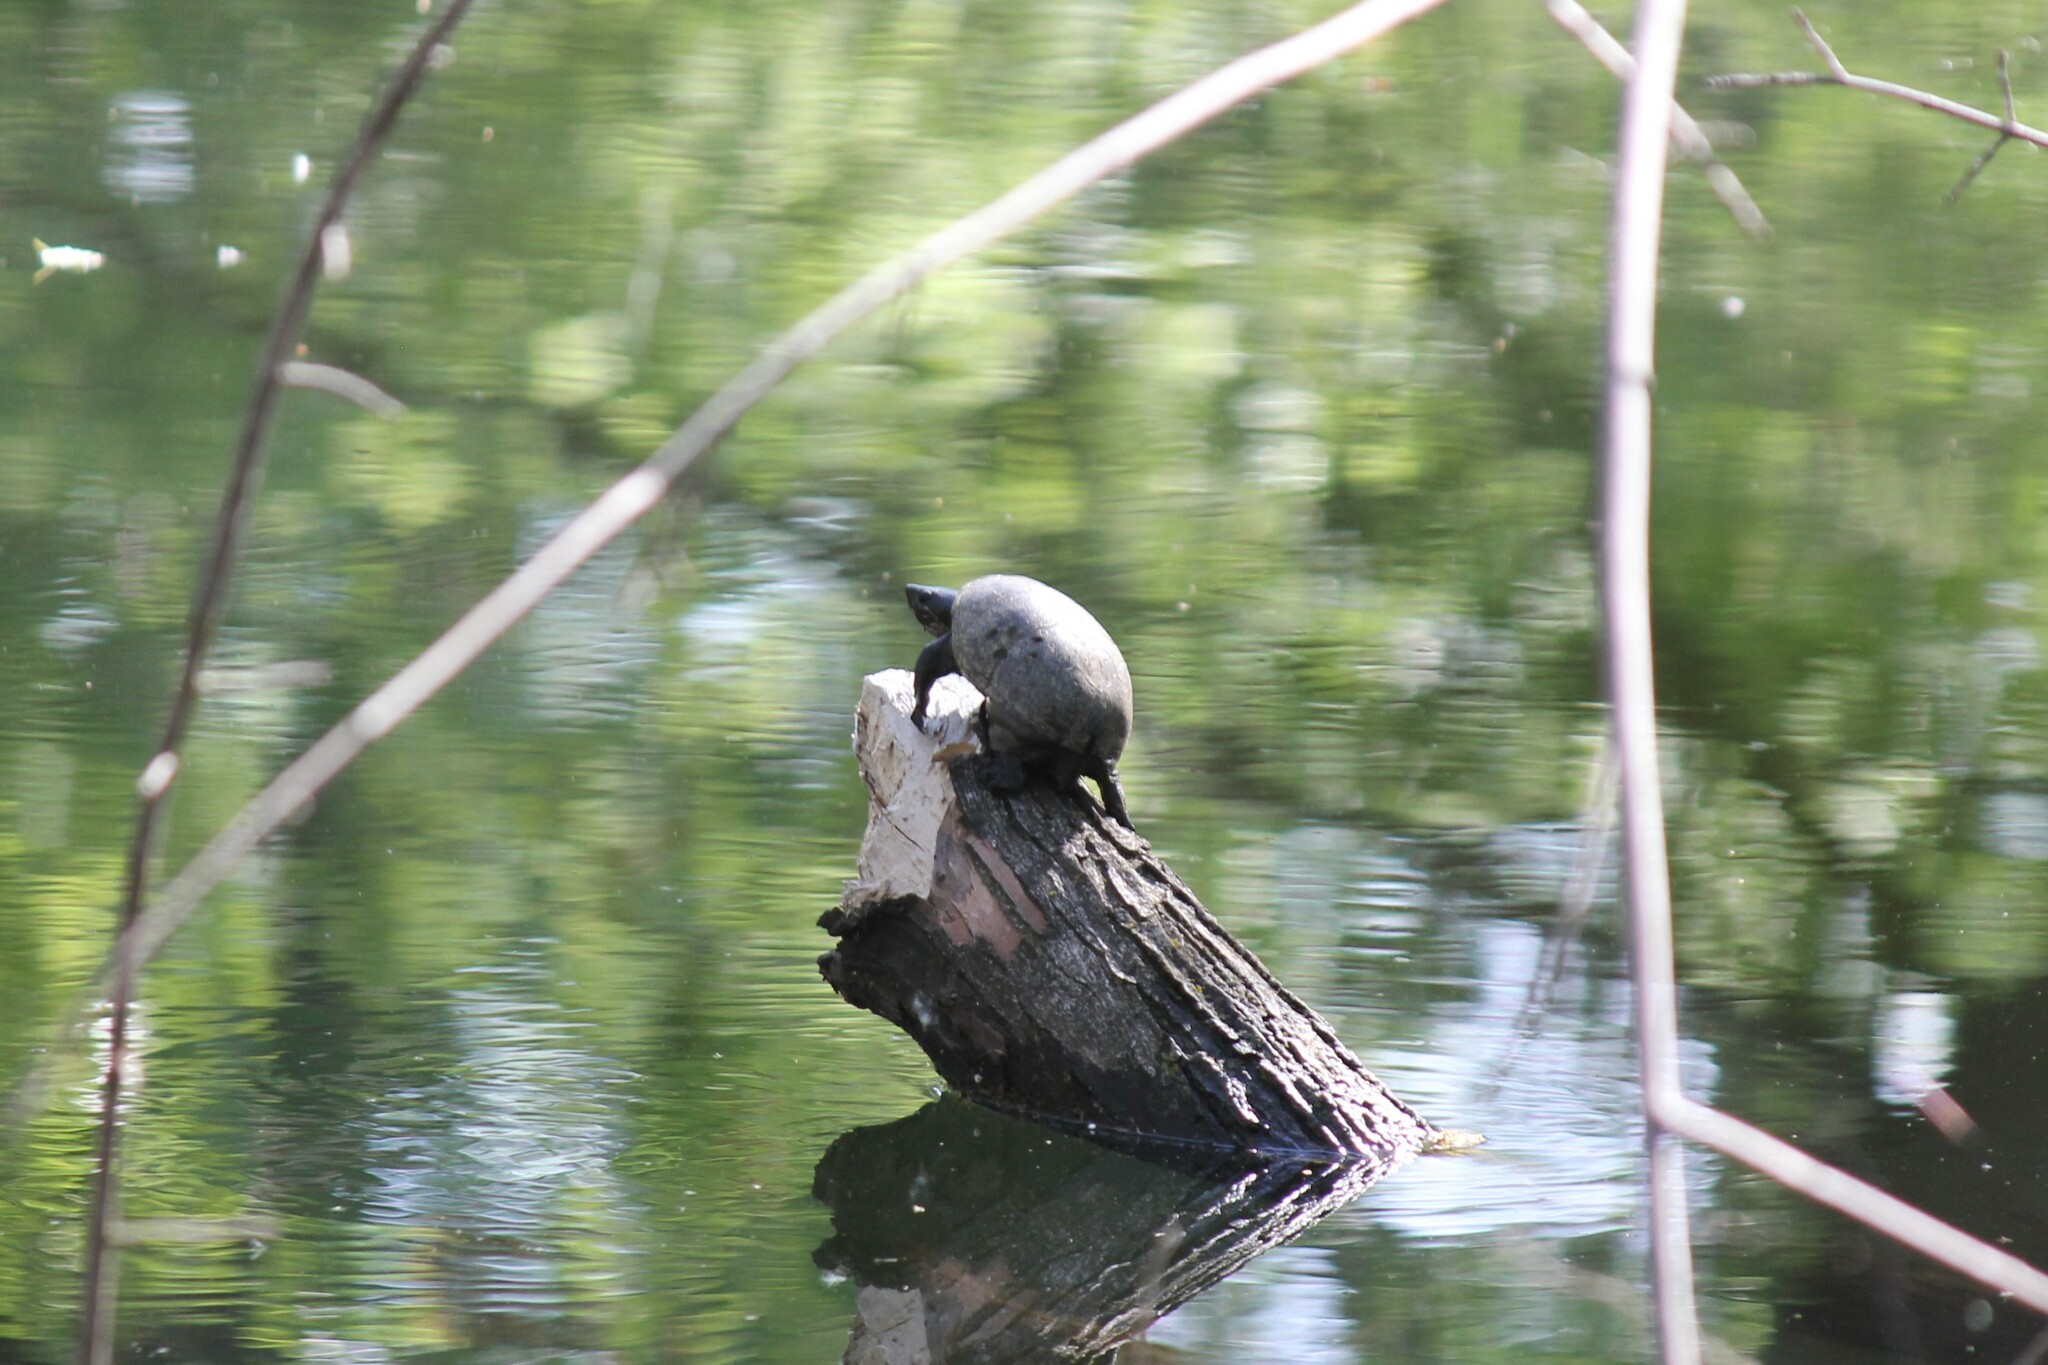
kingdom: Animalia
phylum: Chordata
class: Testudines
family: Kinosternidae
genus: Sternotherus
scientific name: Sternotherus odoratus
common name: Common musk turtle
